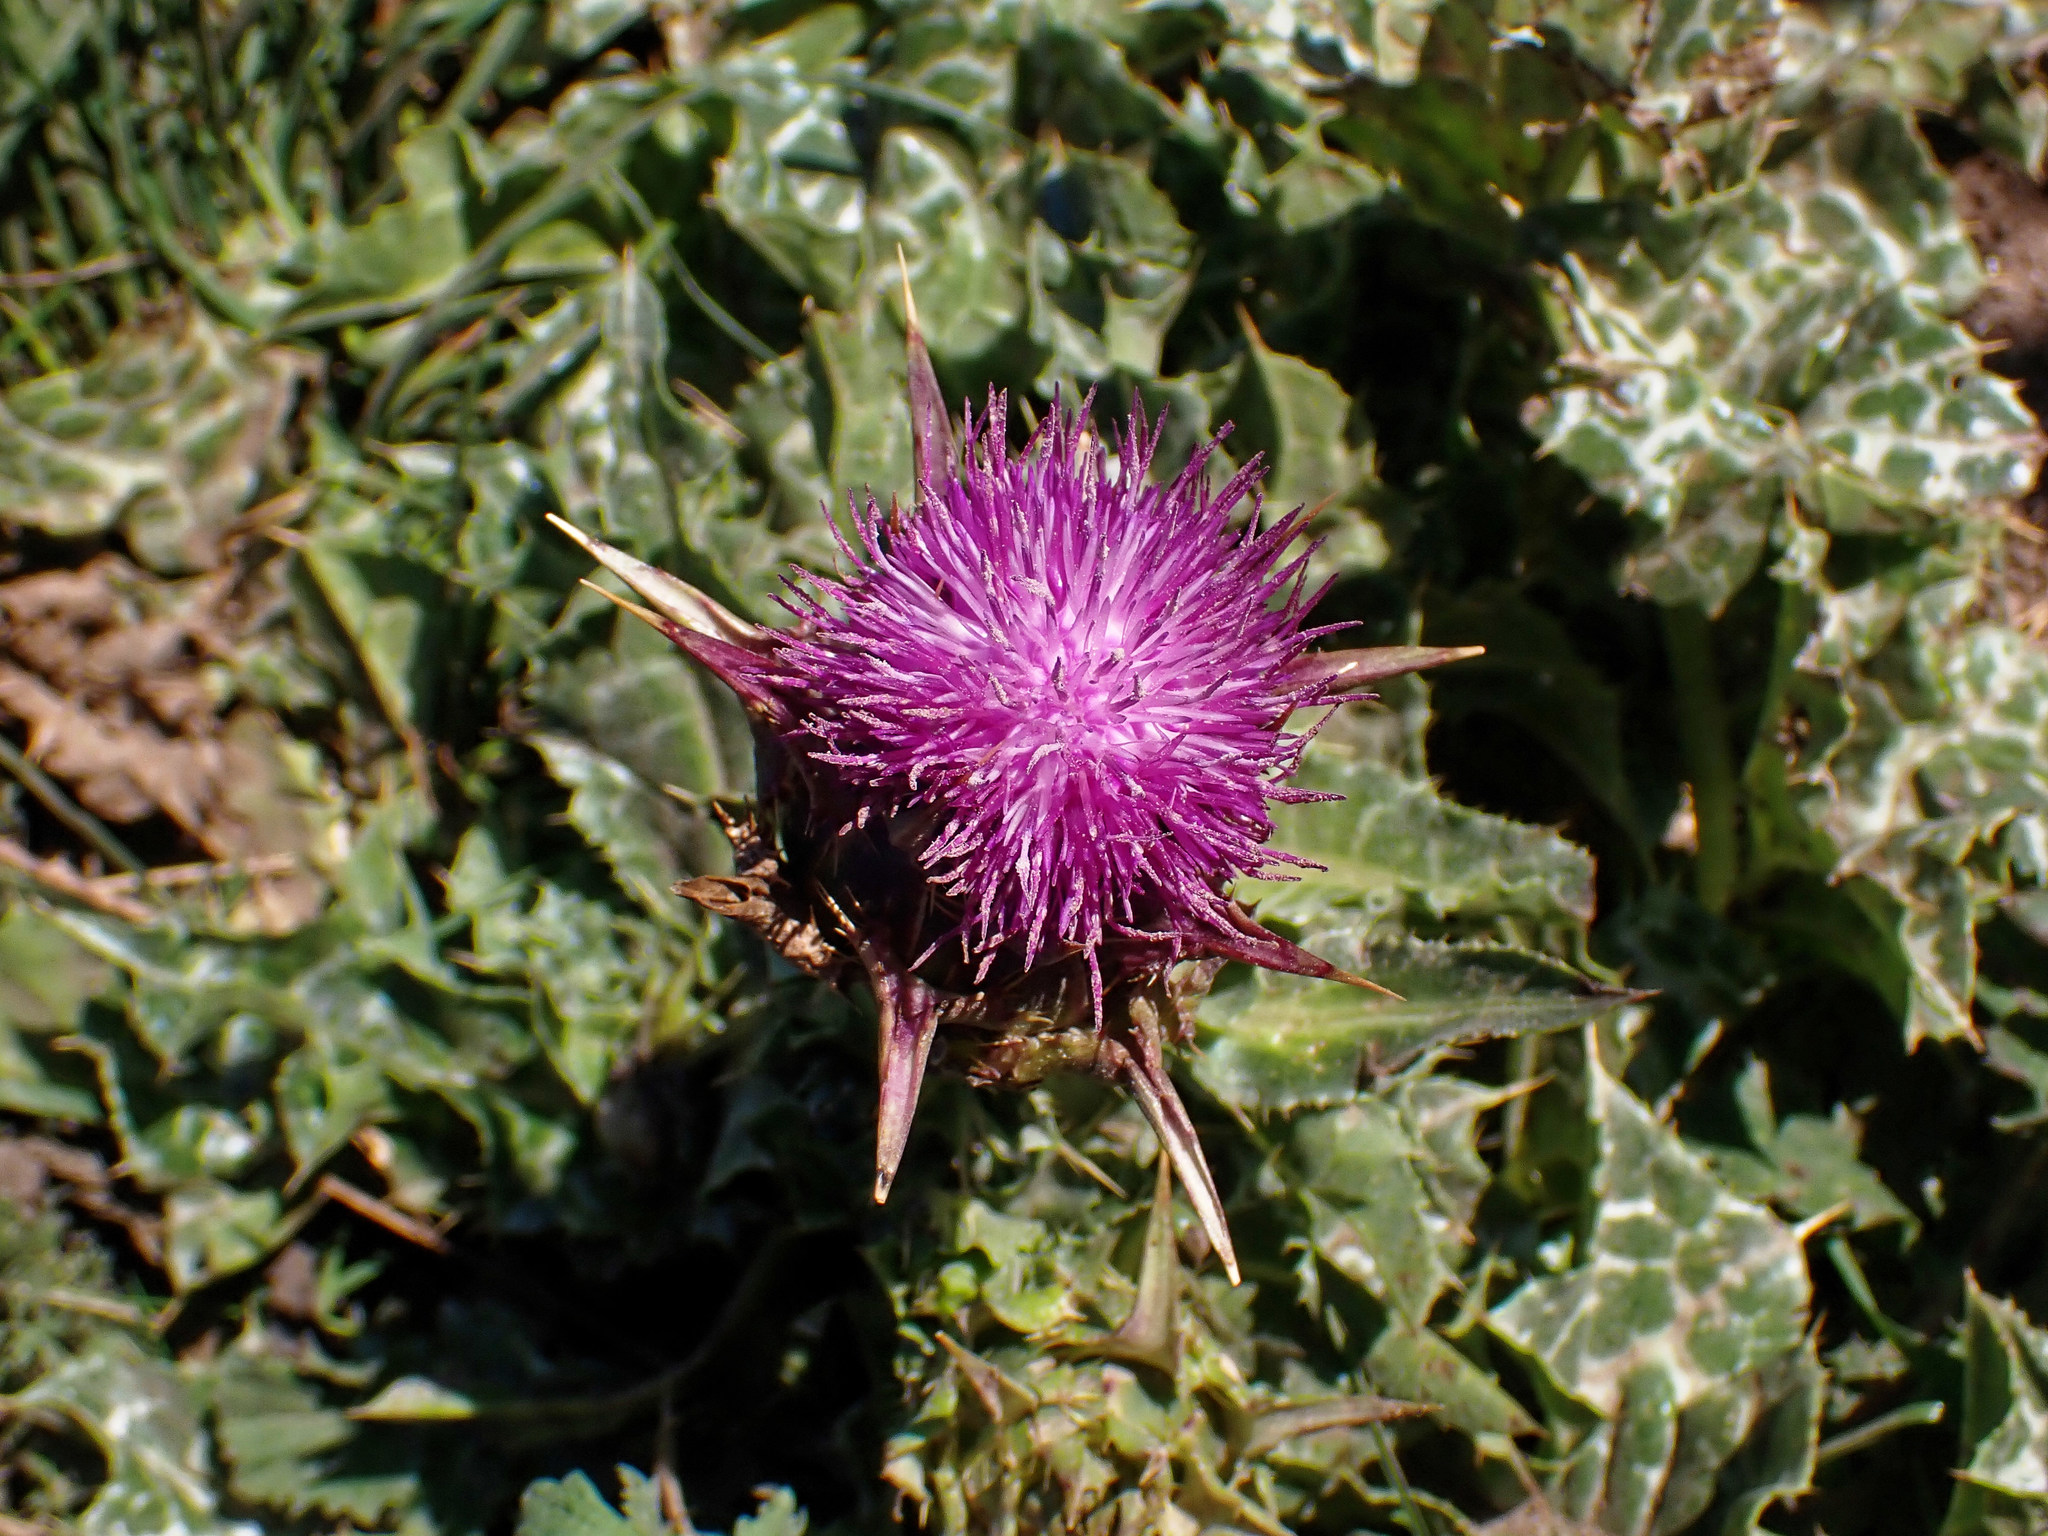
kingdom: Plantae
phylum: Tracheophyta
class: Magnoliopsida
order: Asterales
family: Asteraceae
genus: Silybum
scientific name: Silybum marianum
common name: Milk thistle
